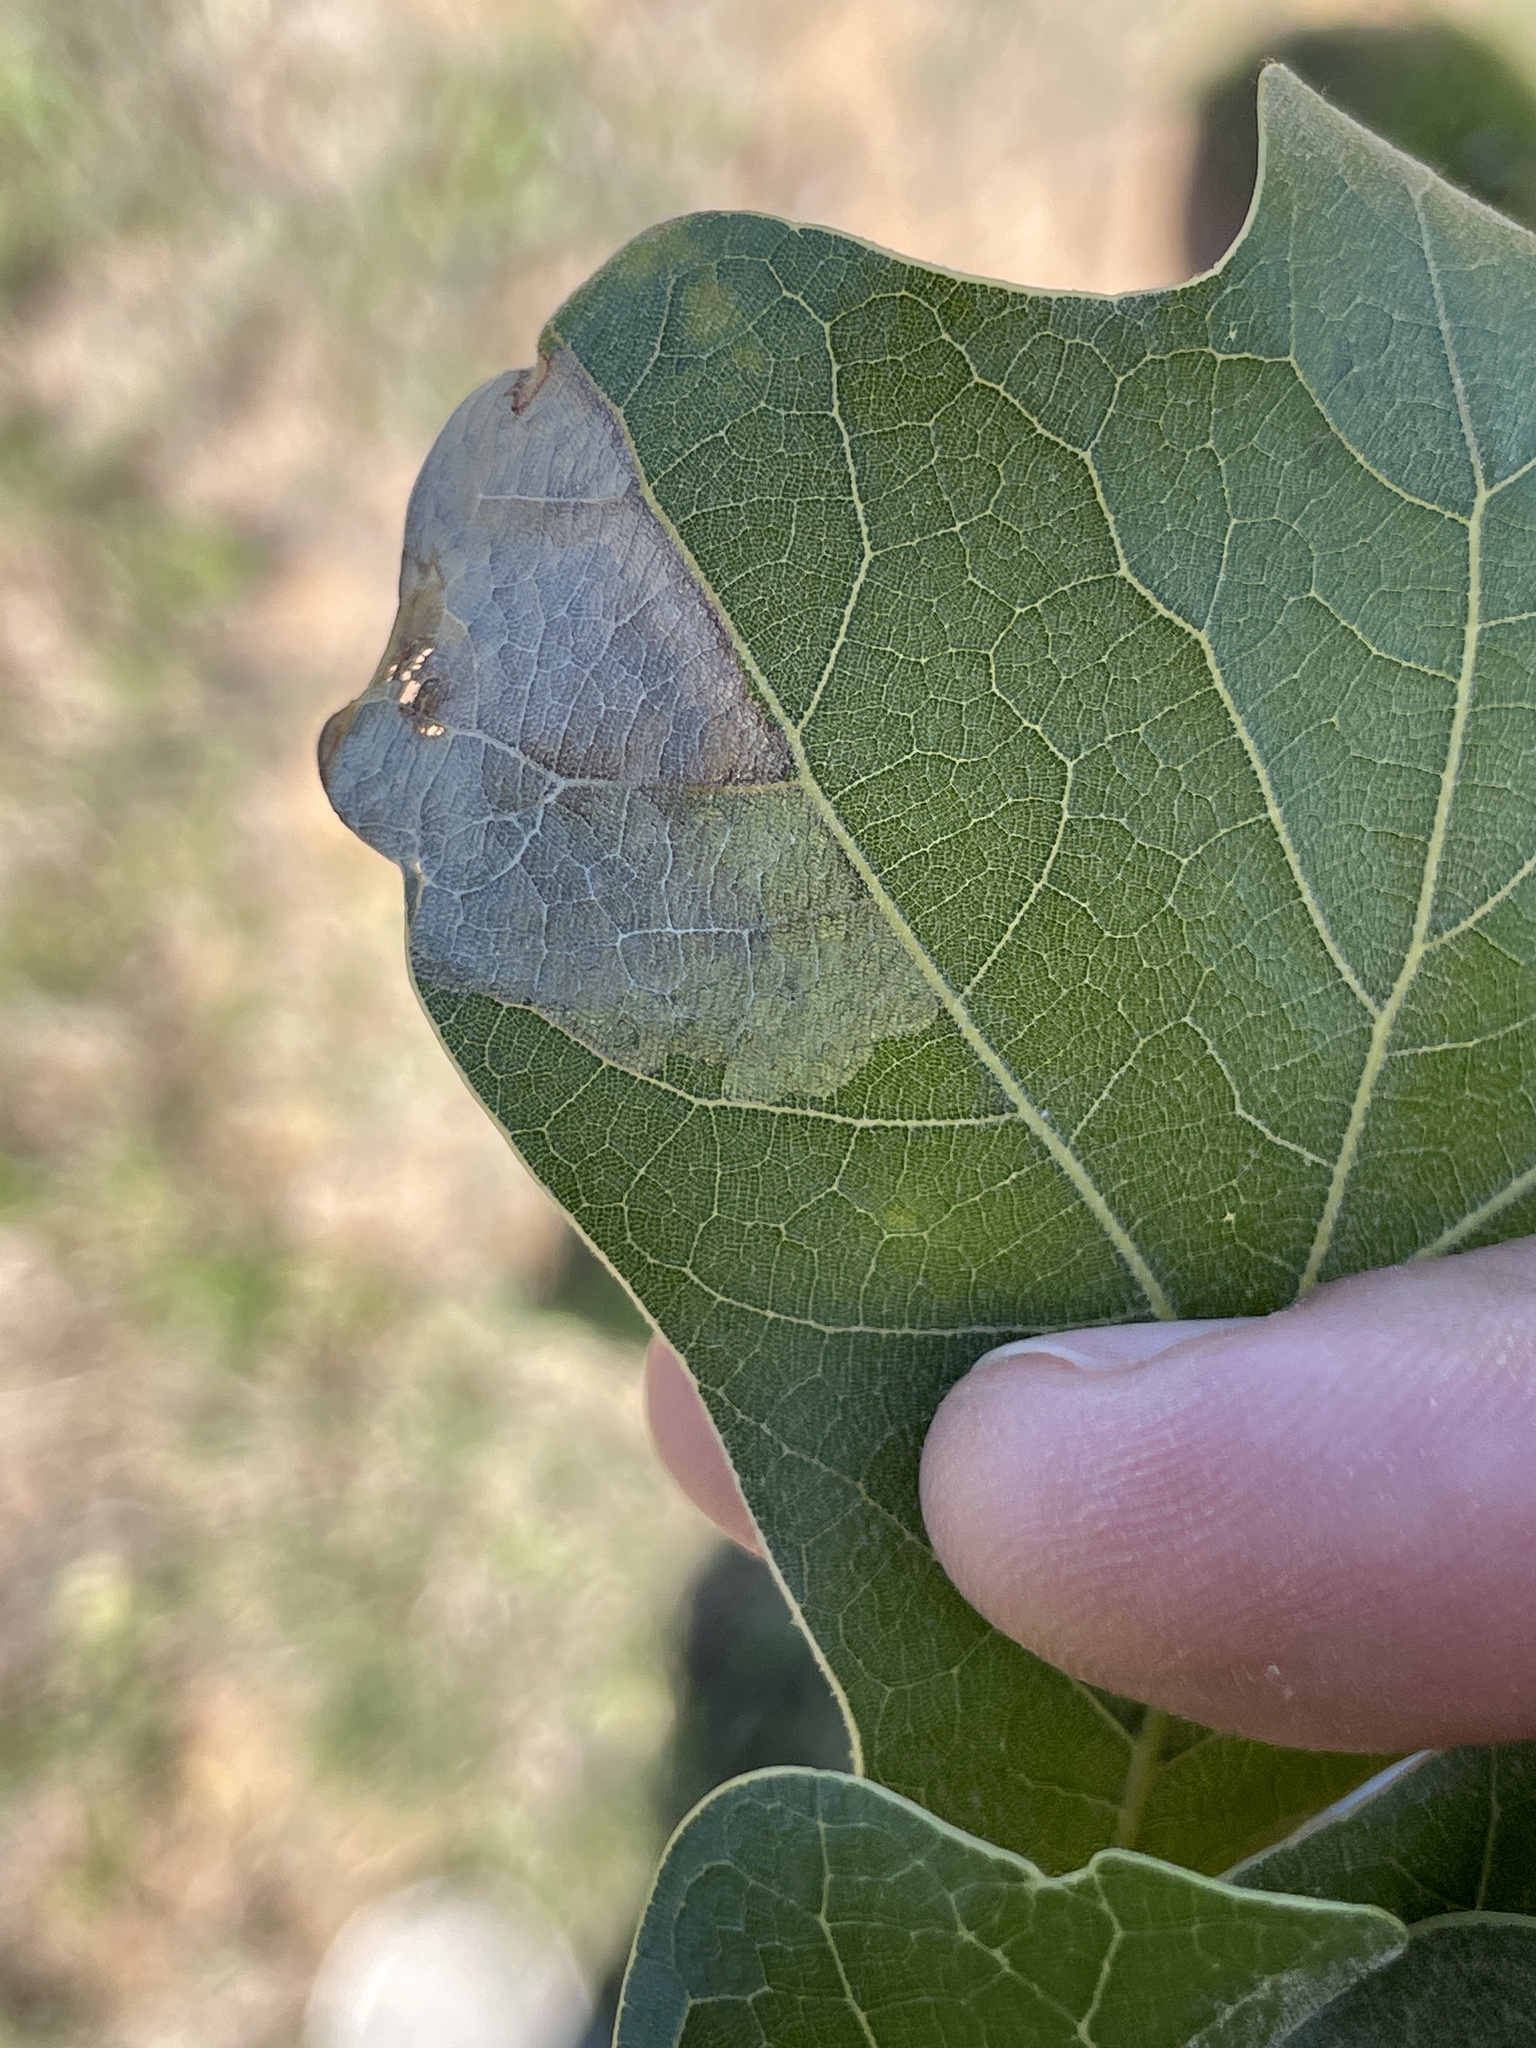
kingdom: Animalia
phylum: Arthropoda
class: Insecta
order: Coleoptera
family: Chrysomelidae
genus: Baliosus
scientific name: Baliosus nervosus
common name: Basswood leaf miner
